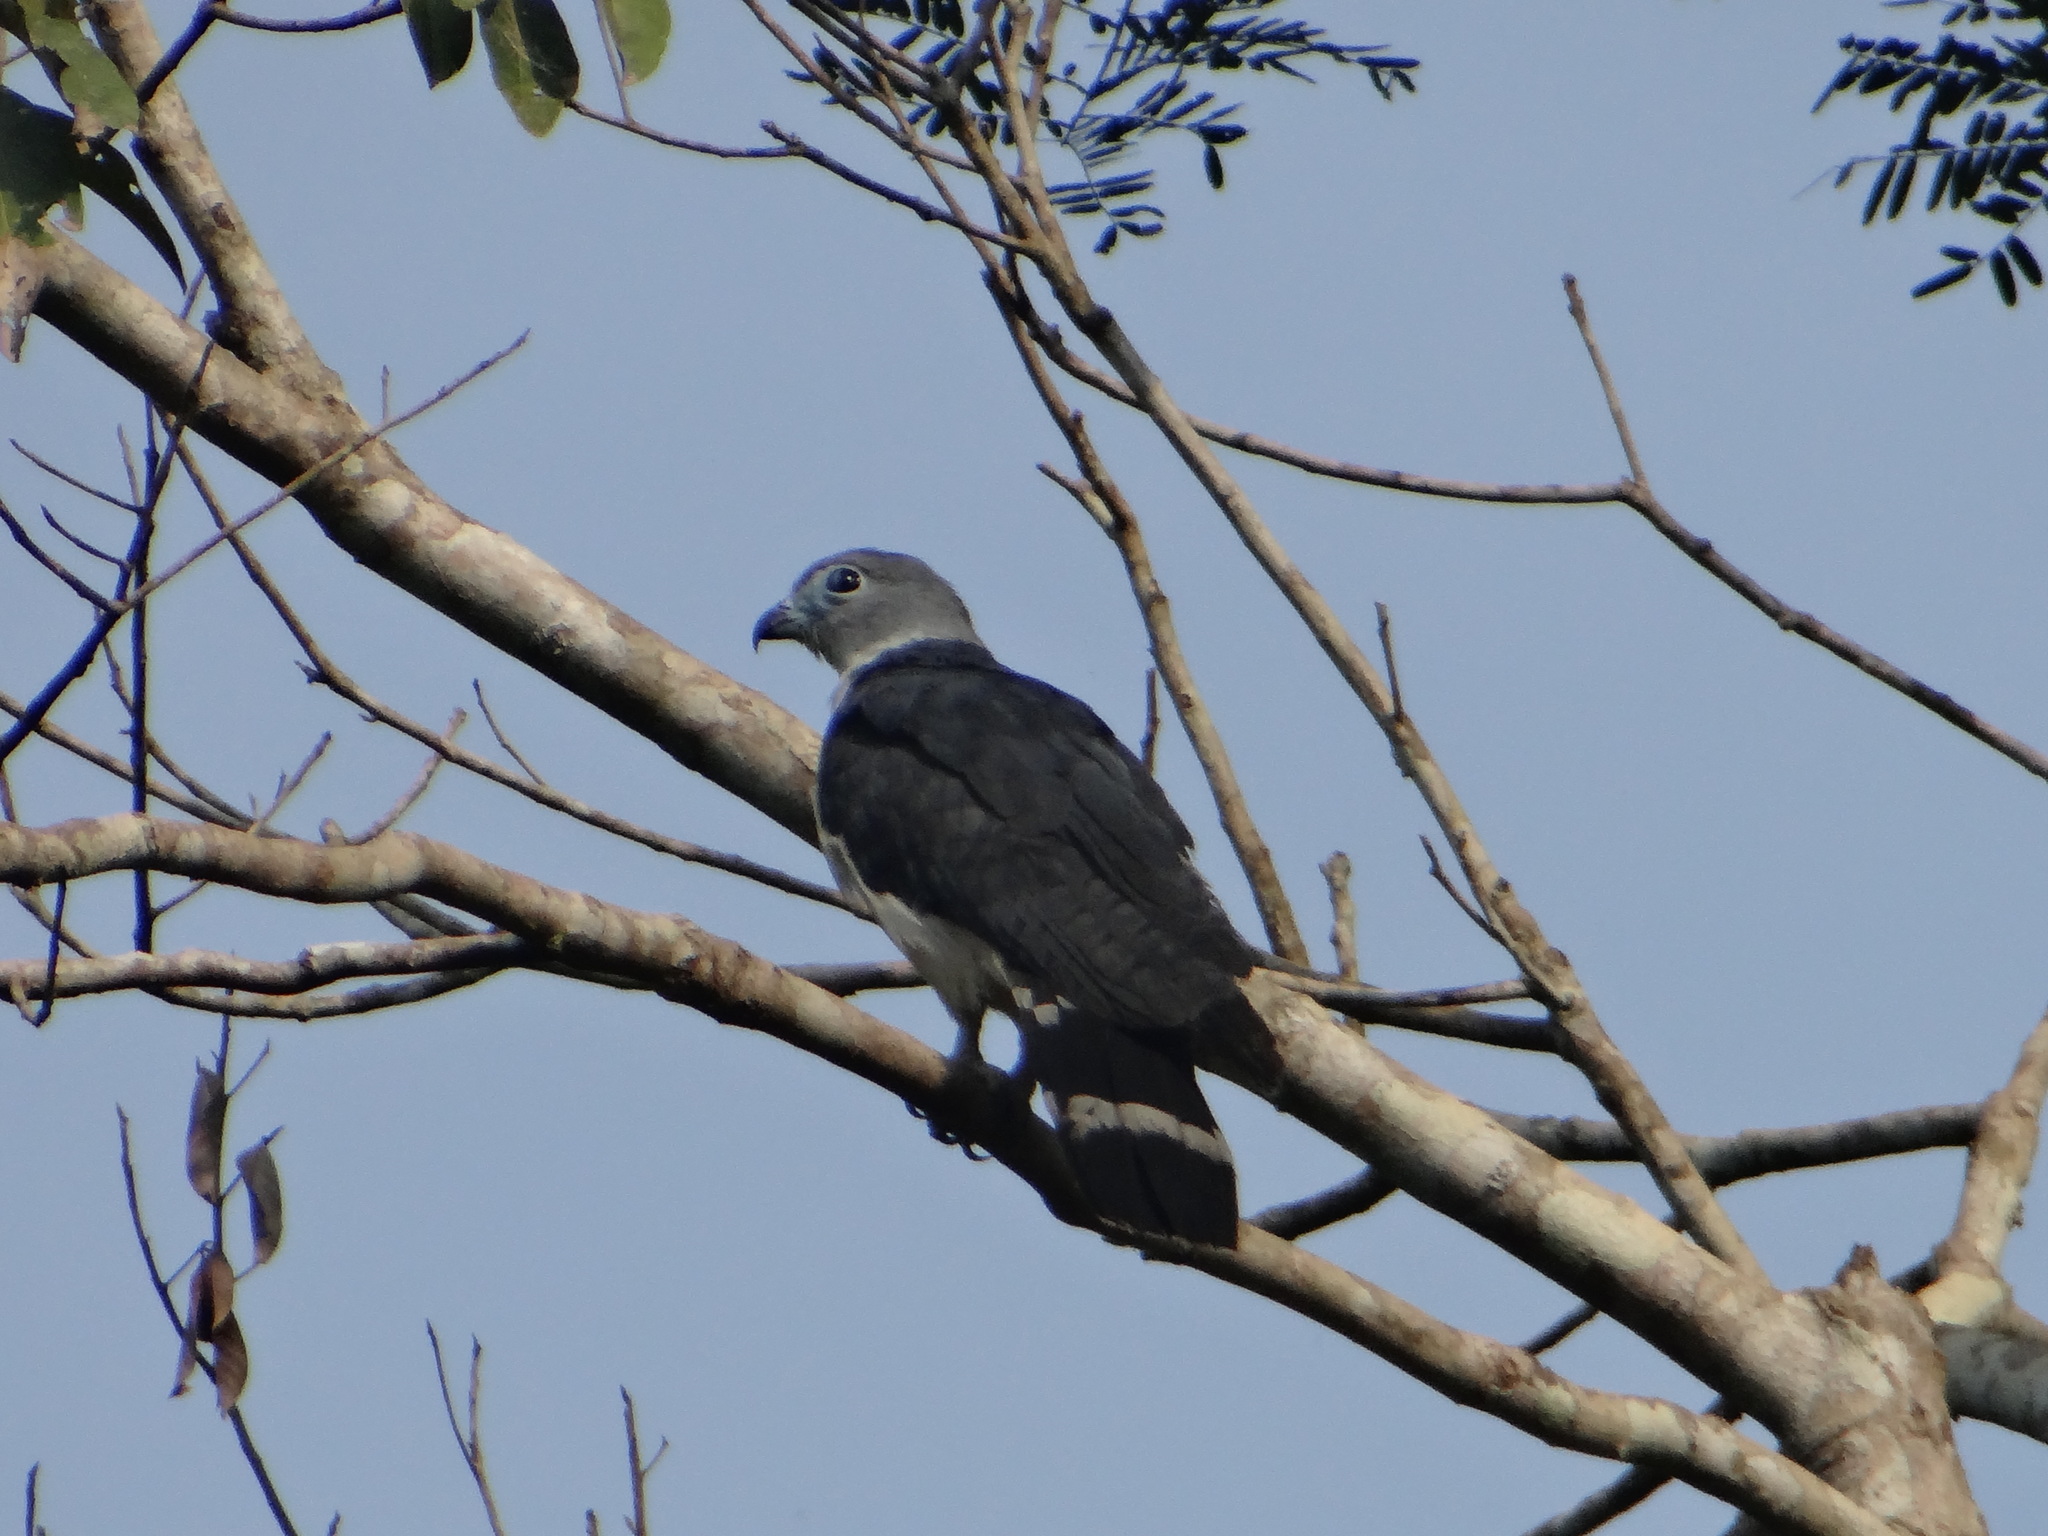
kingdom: Animalia
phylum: Chordata
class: Aves
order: Accipitriformes
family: Accipitridae
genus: Leptodon
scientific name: Leptodon cayanensis
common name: Gray-headed kite
